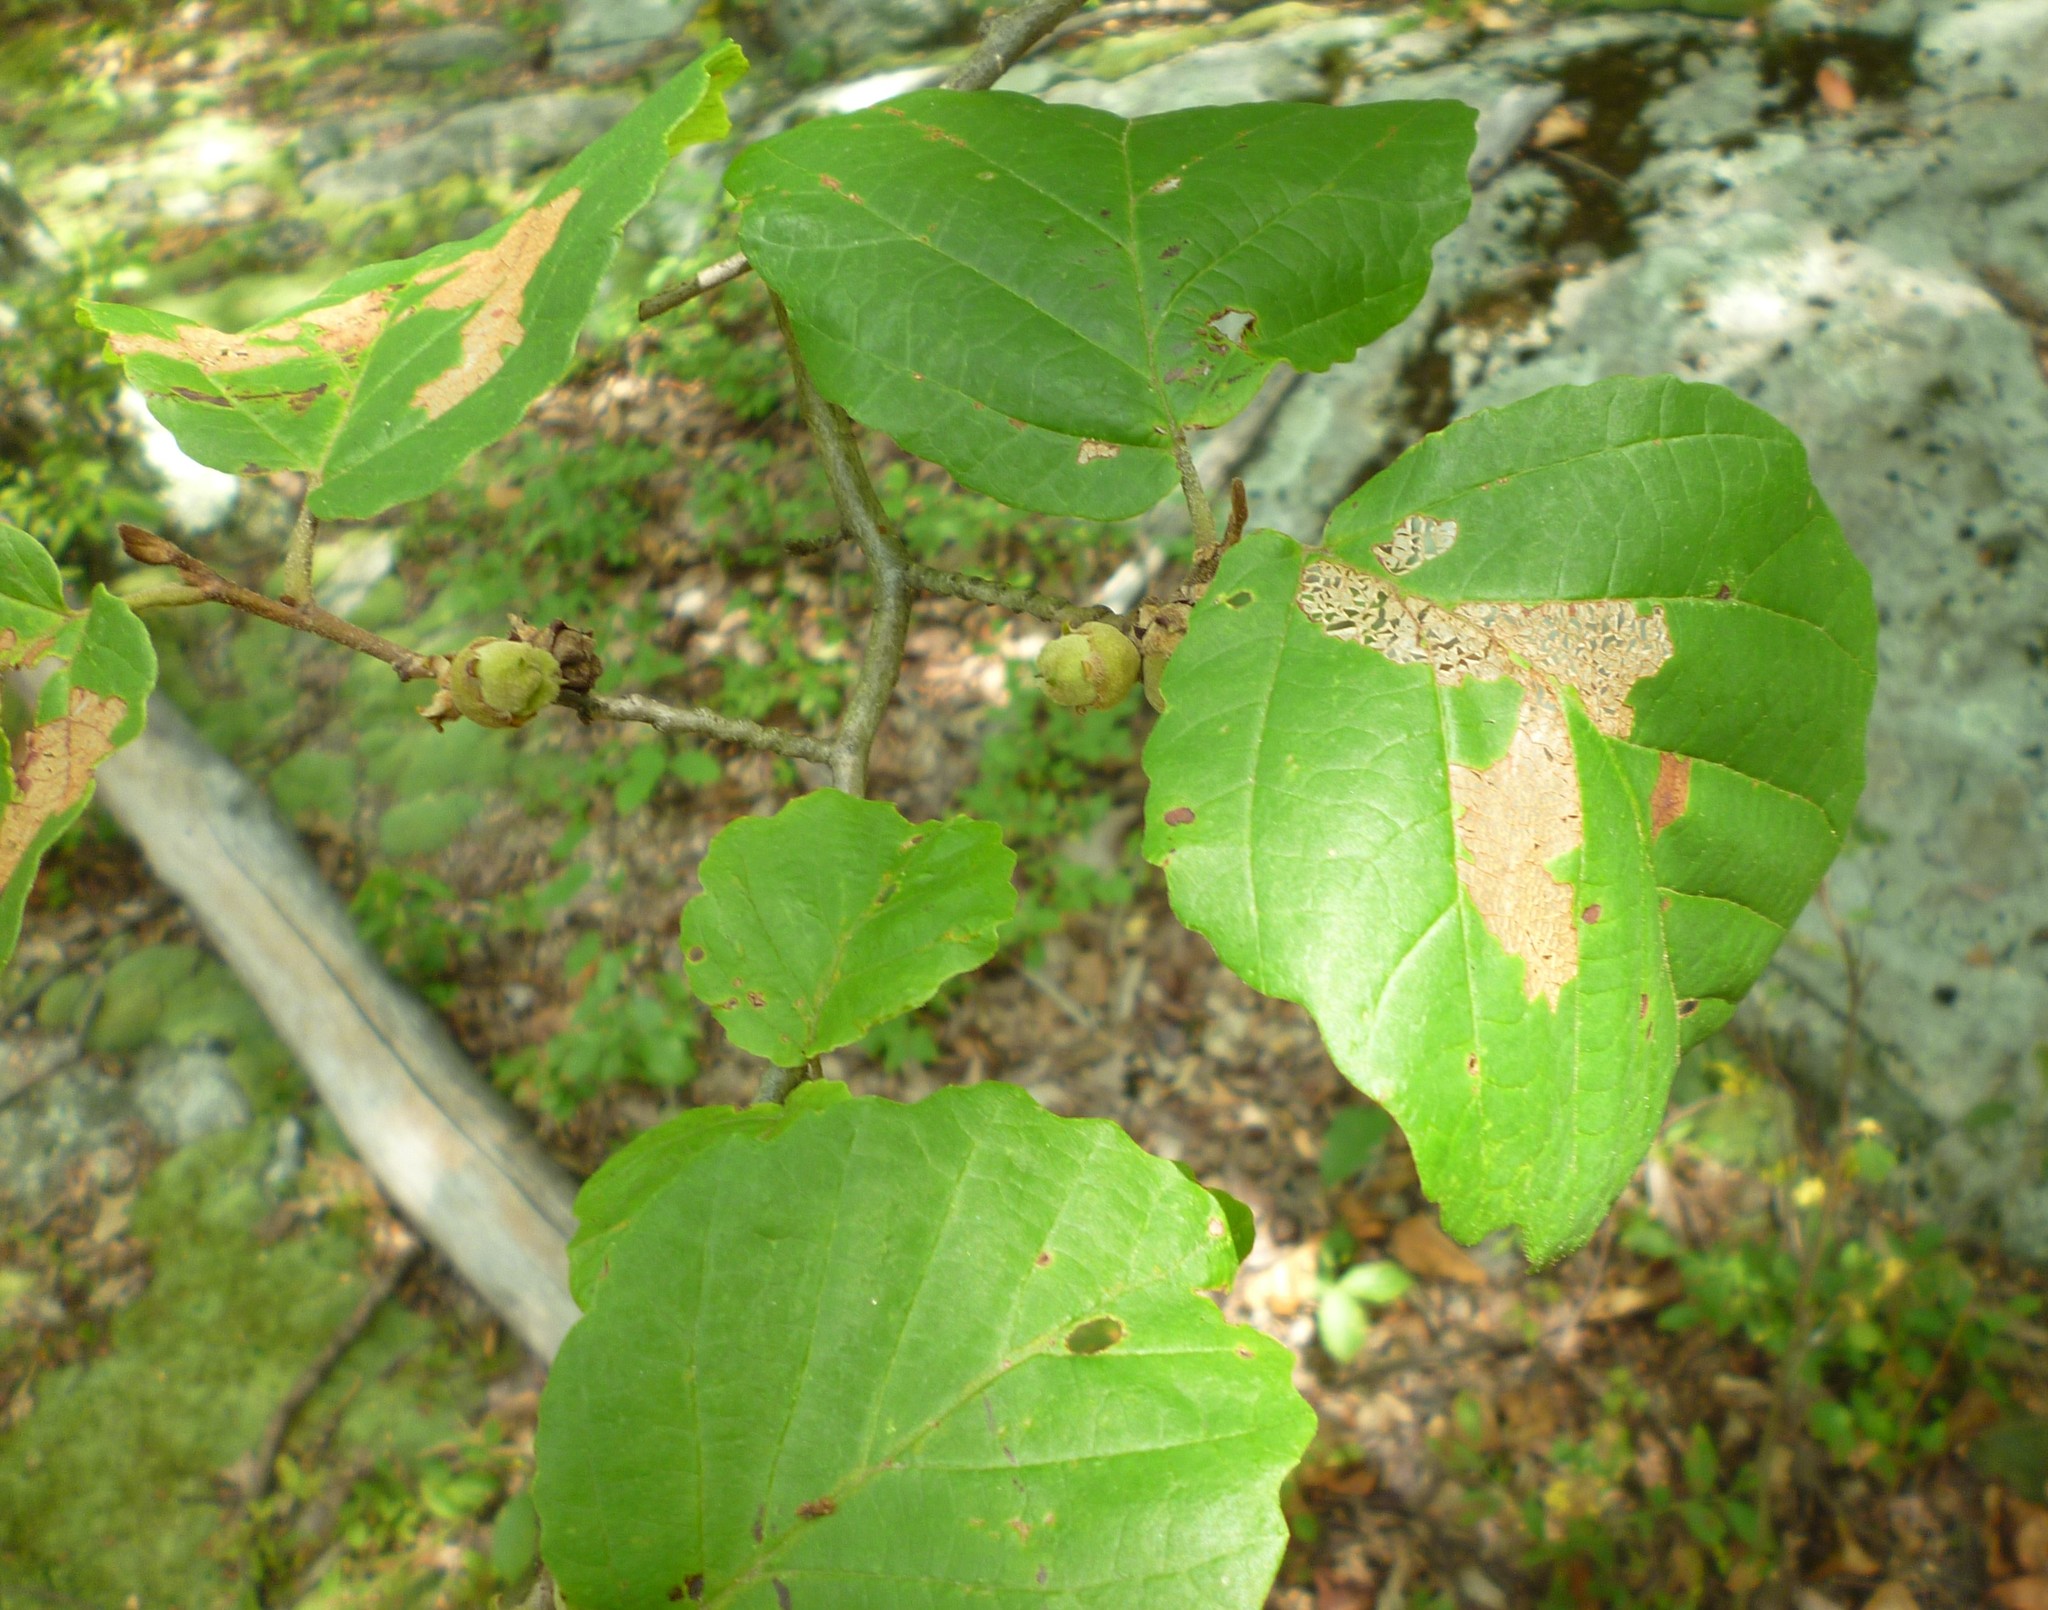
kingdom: Plantae
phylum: Tracheophyta
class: Magnoliopsida
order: Saxifragales
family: Hamamelidaceae
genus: Hamamelis
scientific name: Hamamelis virginiana
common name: Witch-hazel
